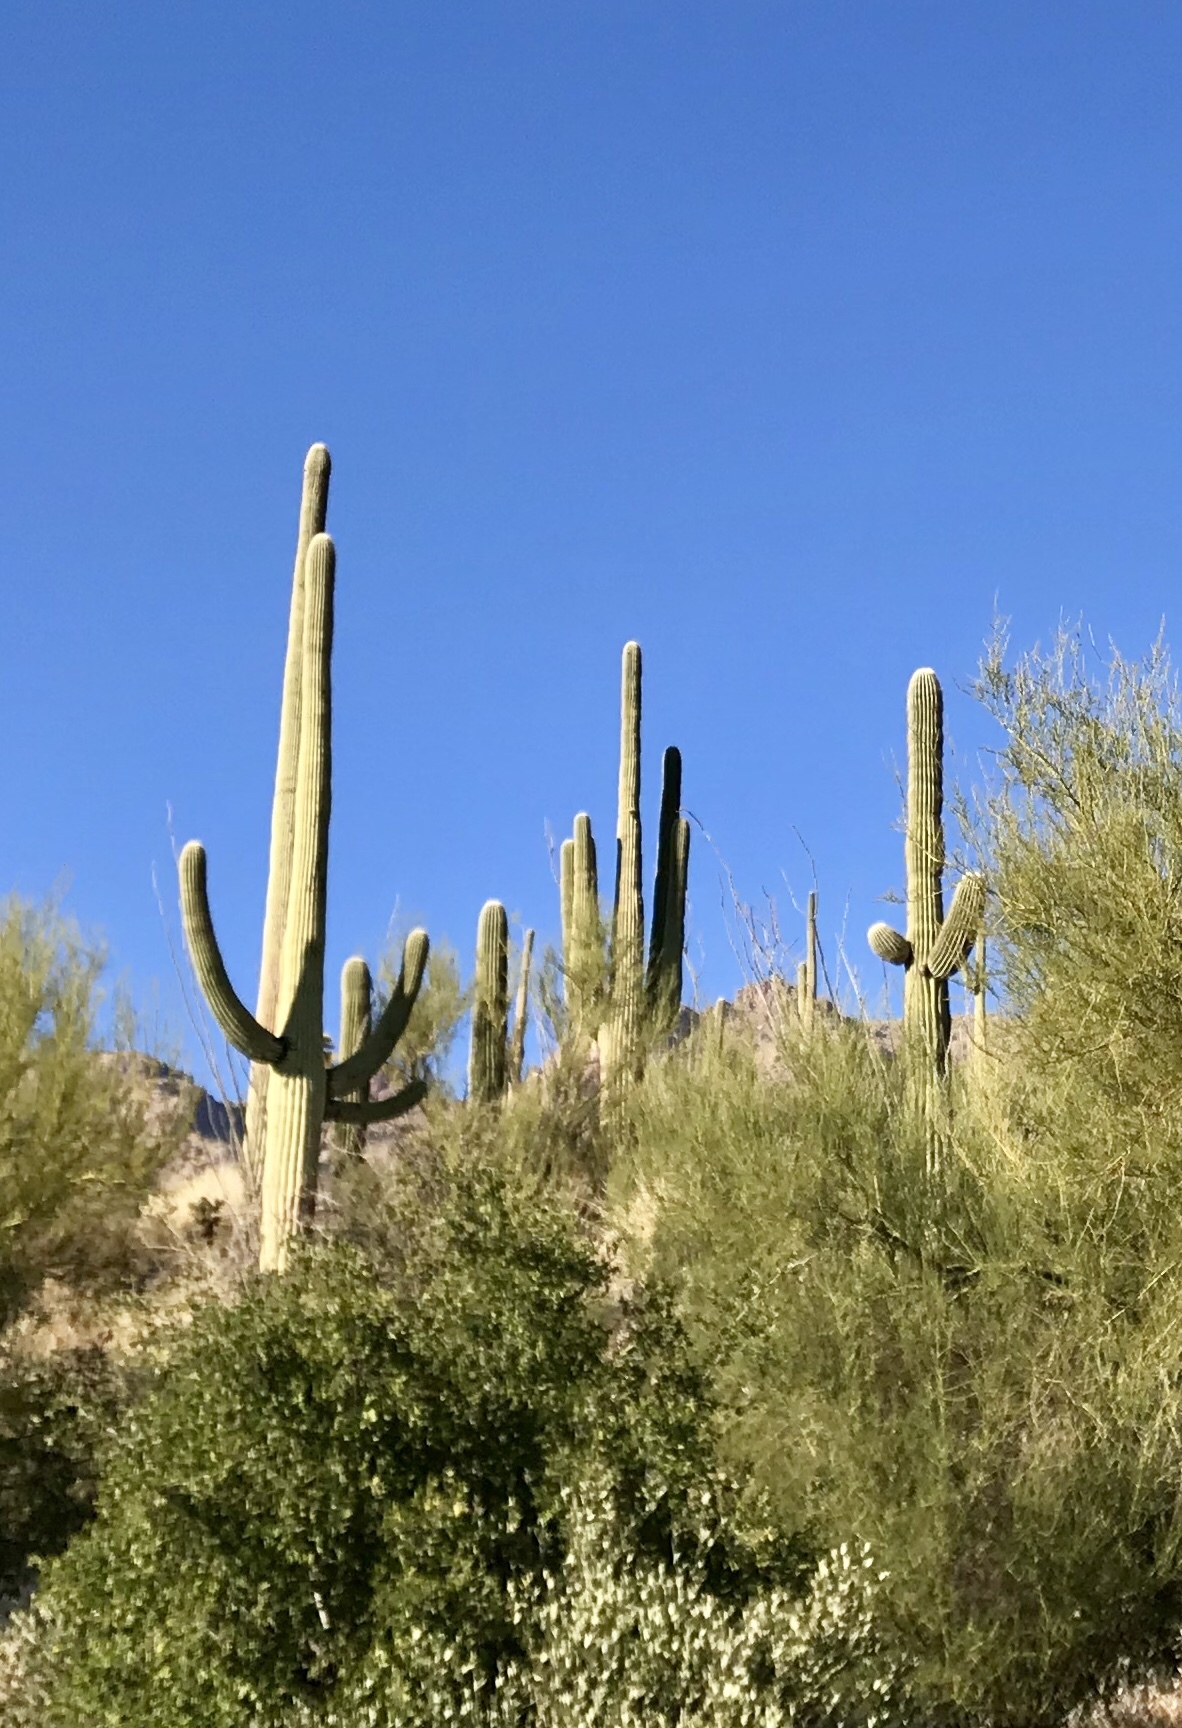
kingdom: Plantae
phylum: Tracheophyta
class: Magnoliopsida
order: Caryophyllales
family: Cactaceae
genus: Carnegiea
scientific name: Carnegiea gigantea
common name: Saguaro
